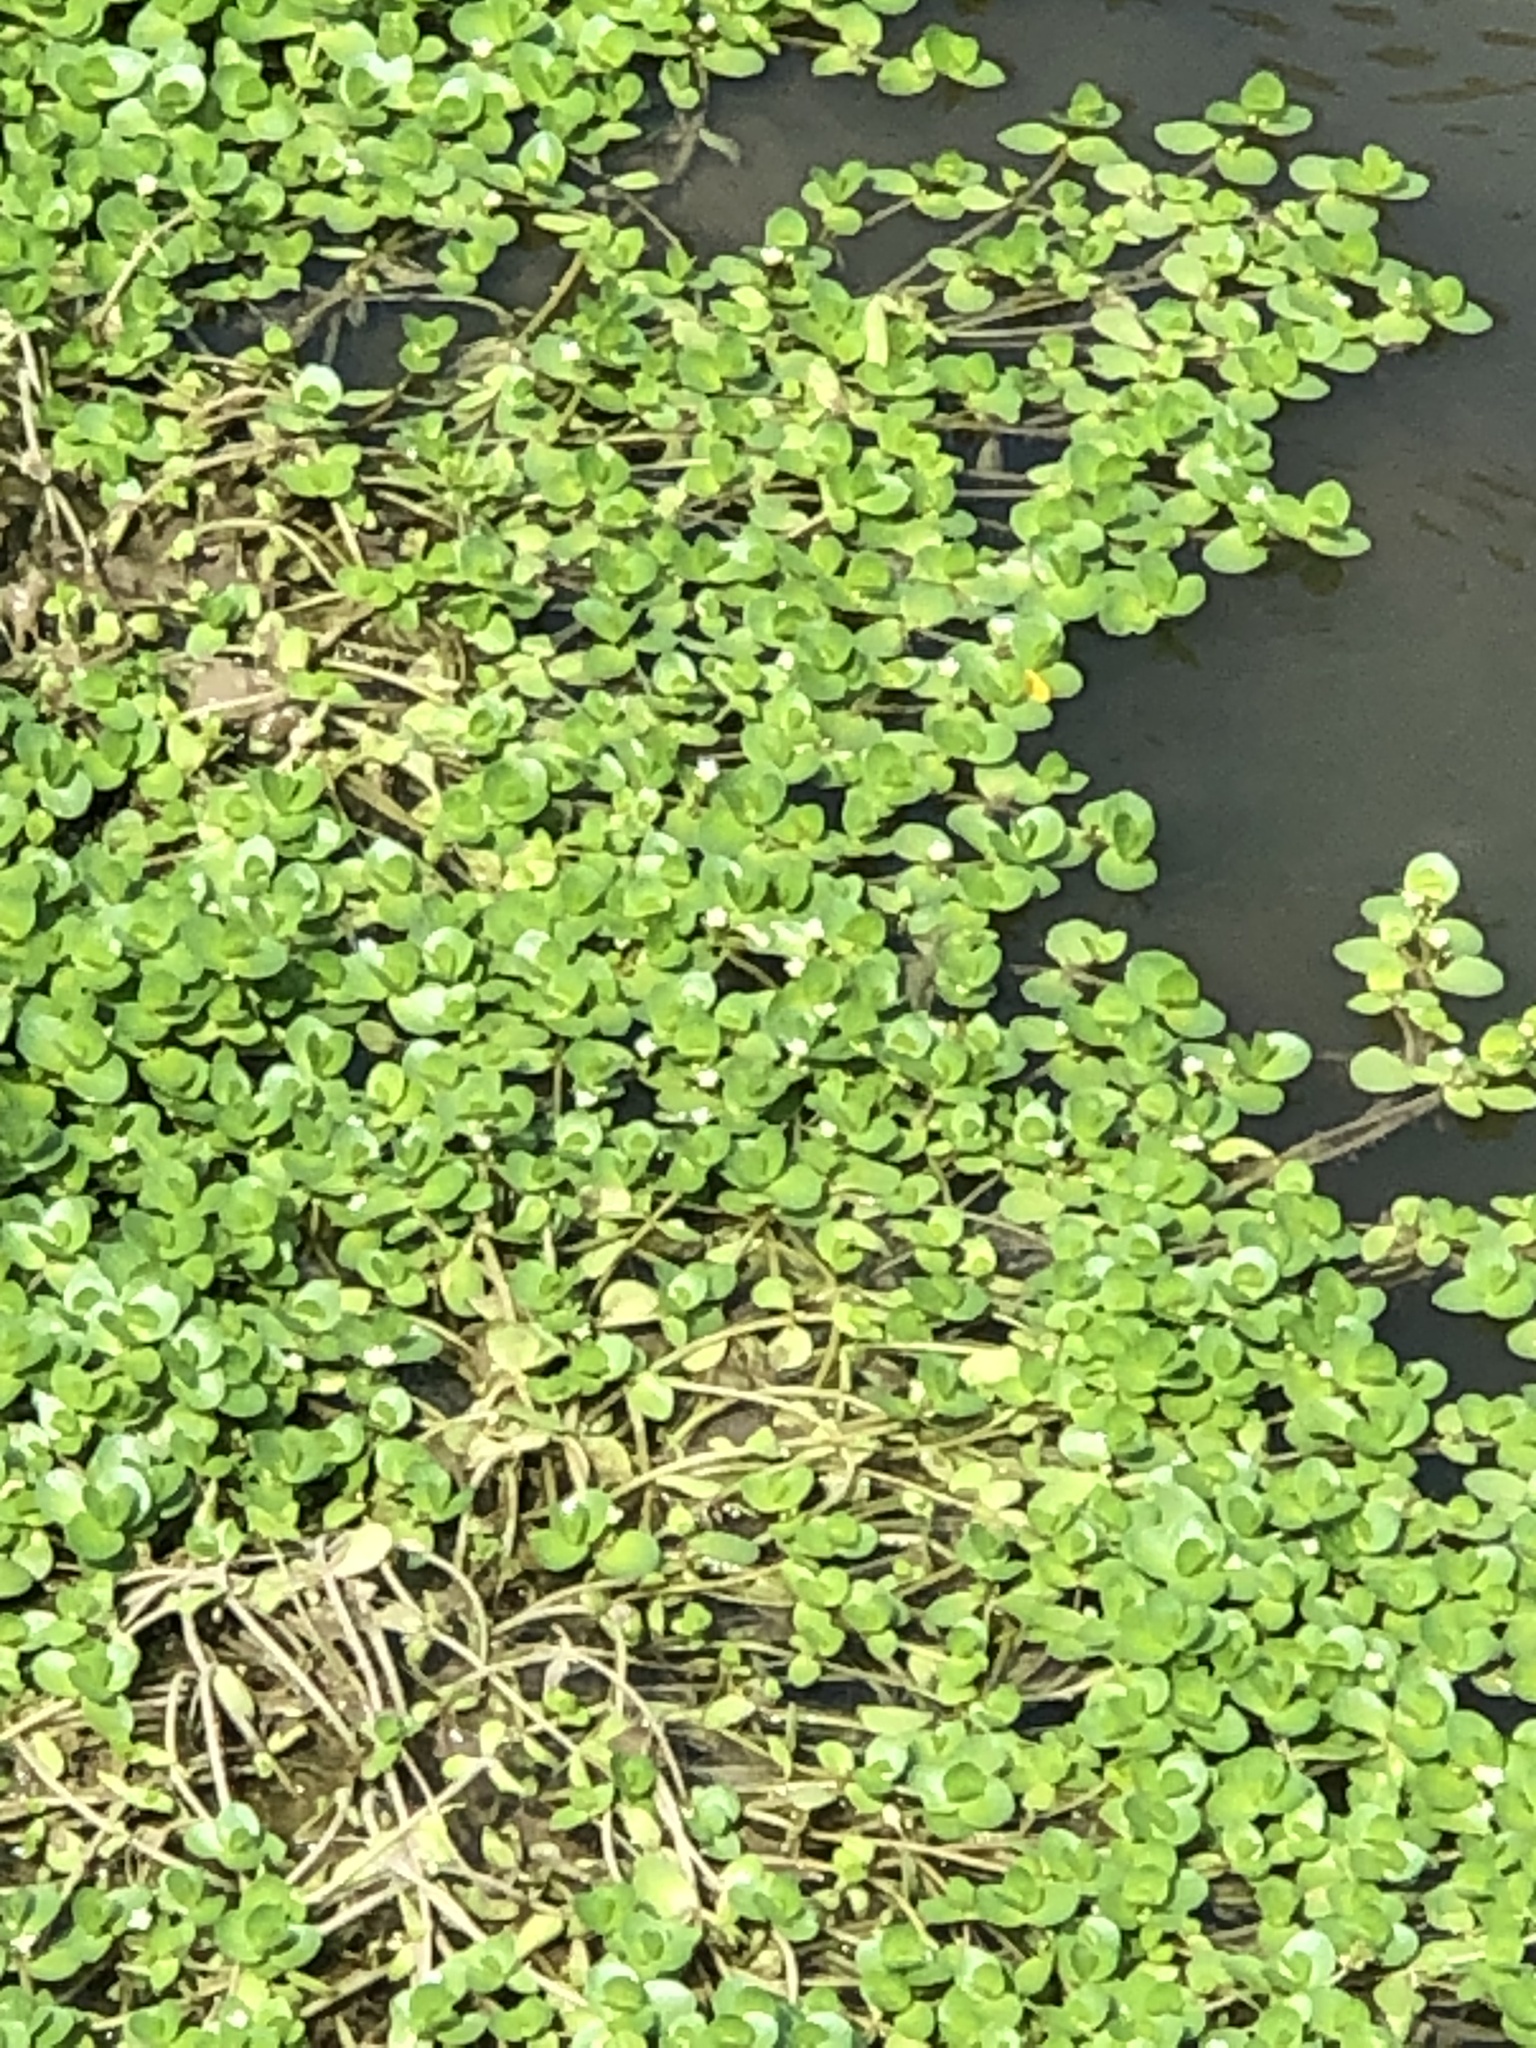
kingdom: Plantae
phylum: Tracheophyta
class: Magnoliopsida
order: Lamiales
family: Plantaginaceae
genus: Bacopa
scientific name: Bacopa rotundifolia
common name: Disc water hyssop
